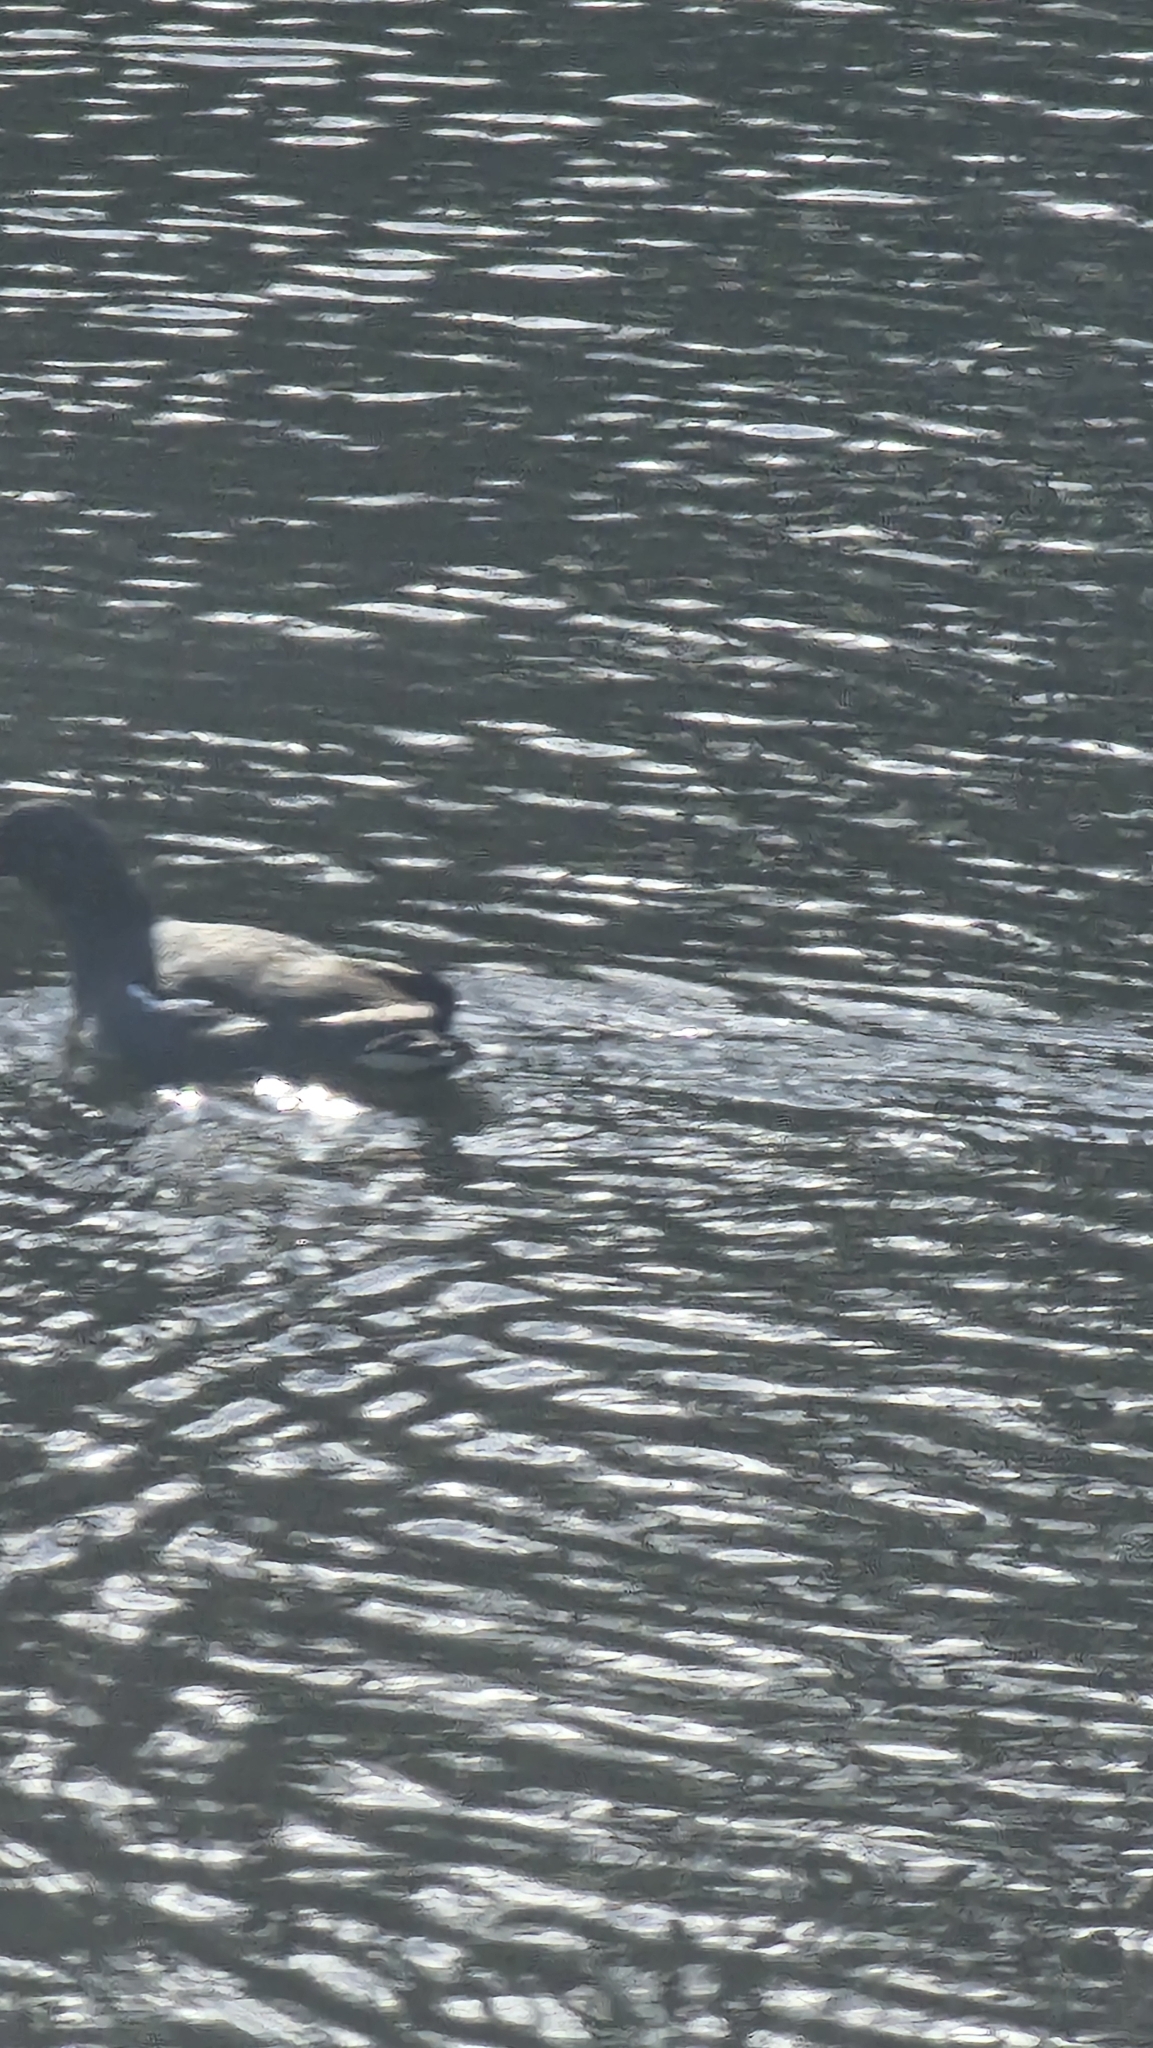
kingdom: Animalia
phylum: Chordata
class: Aves
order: Gruiformes
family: Rallidae
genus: Gallinula
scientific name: Gallinula chloropus
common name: Common moorhen
